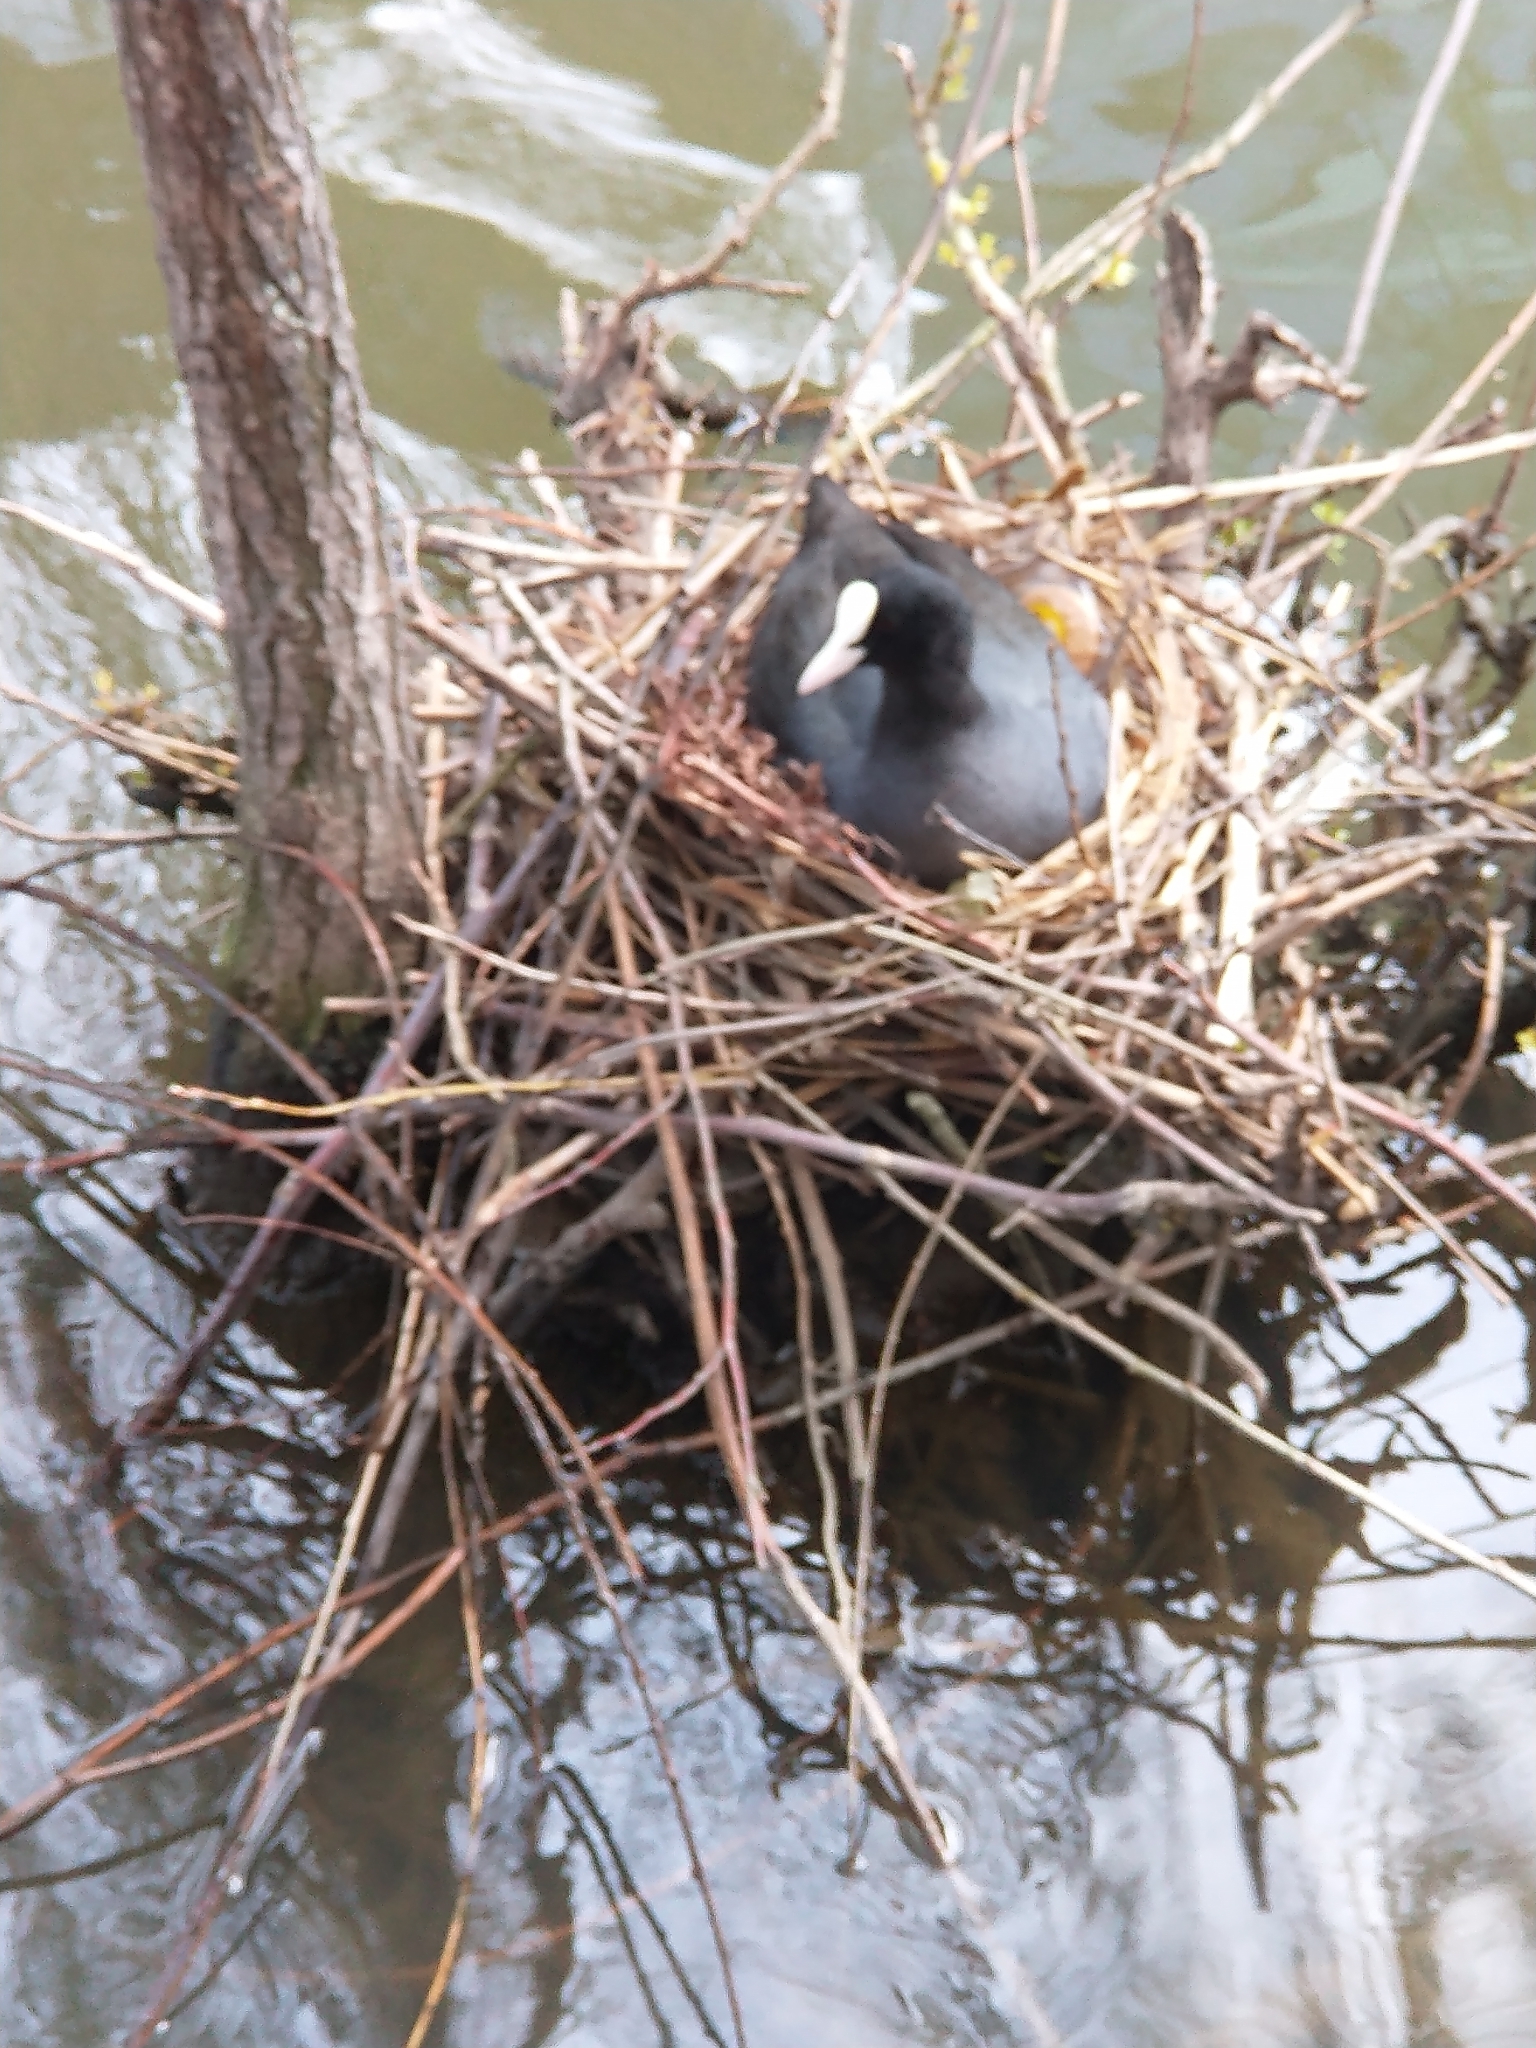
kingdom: Animalia
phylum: Chordata
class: Aves
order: Gruiformes
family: Rallidae
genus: Fulica
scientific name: Fulica atra
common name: Eurasian coot
